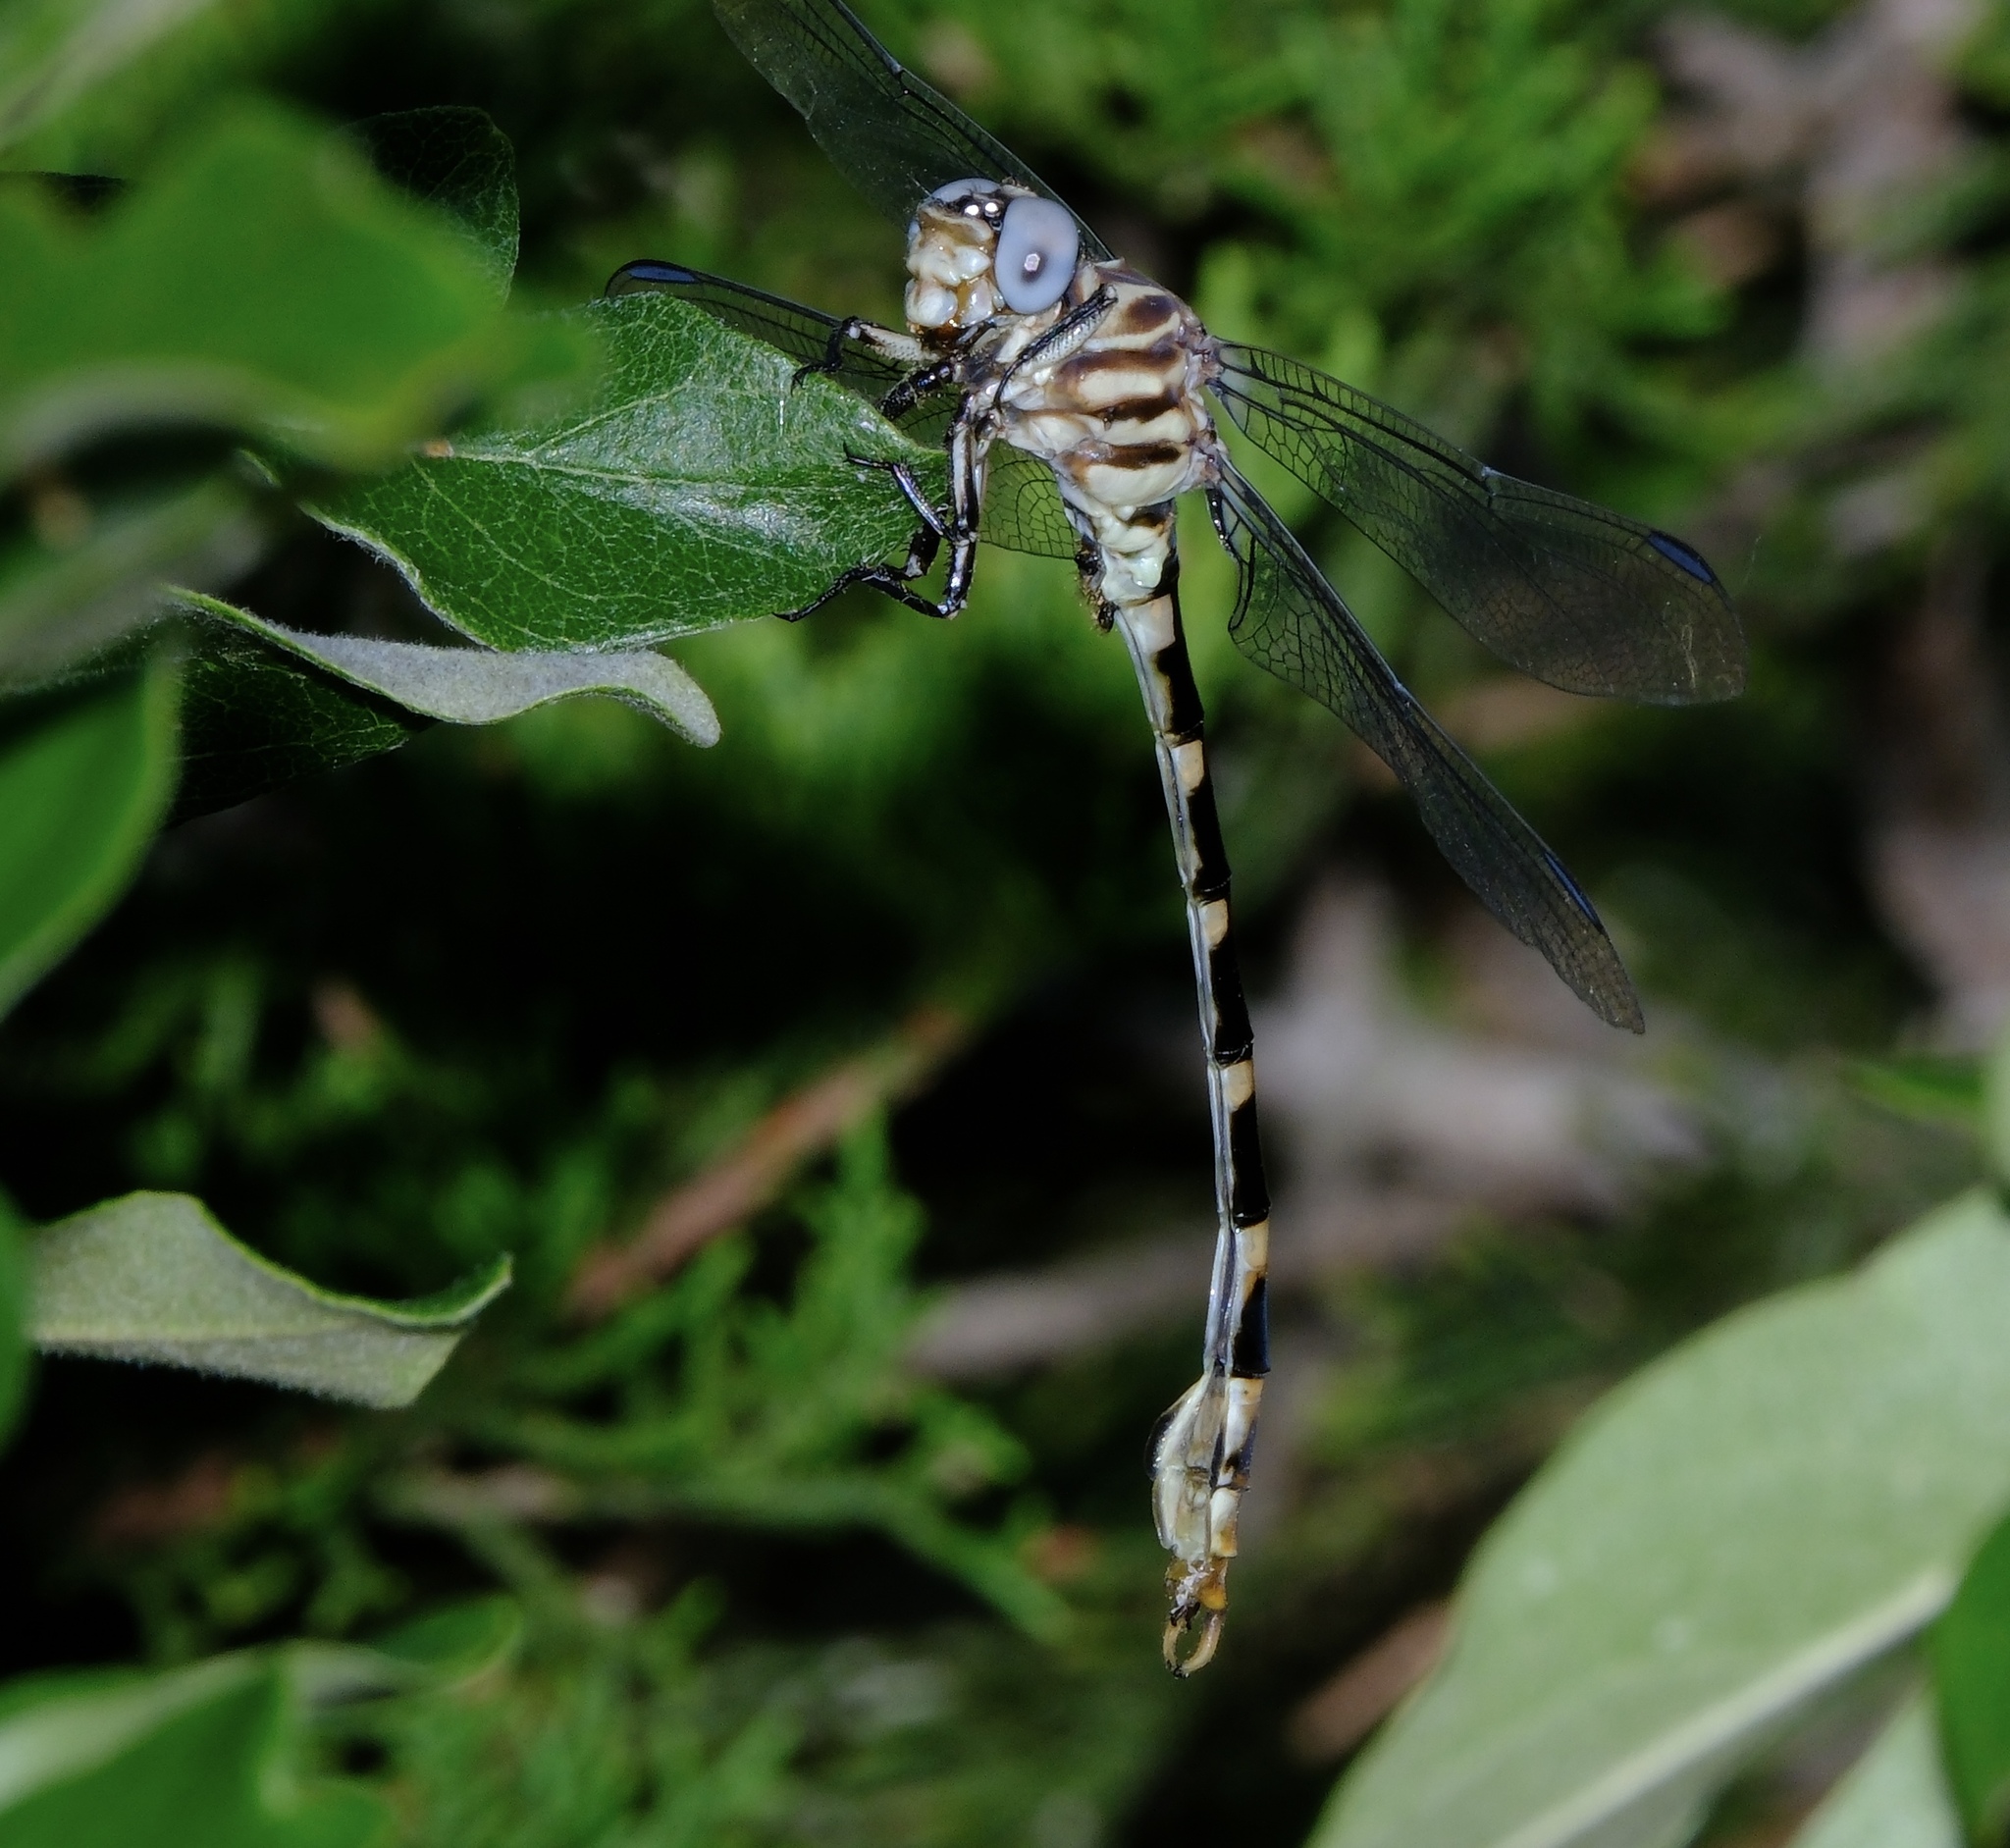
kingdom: Animalia
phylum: Arthropoda
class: Insecta
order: Odonata
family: Gomphidae
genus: Phyllogomphoides
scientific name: Phyllogomphoides stigmatus
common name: Four-striped leaftail
